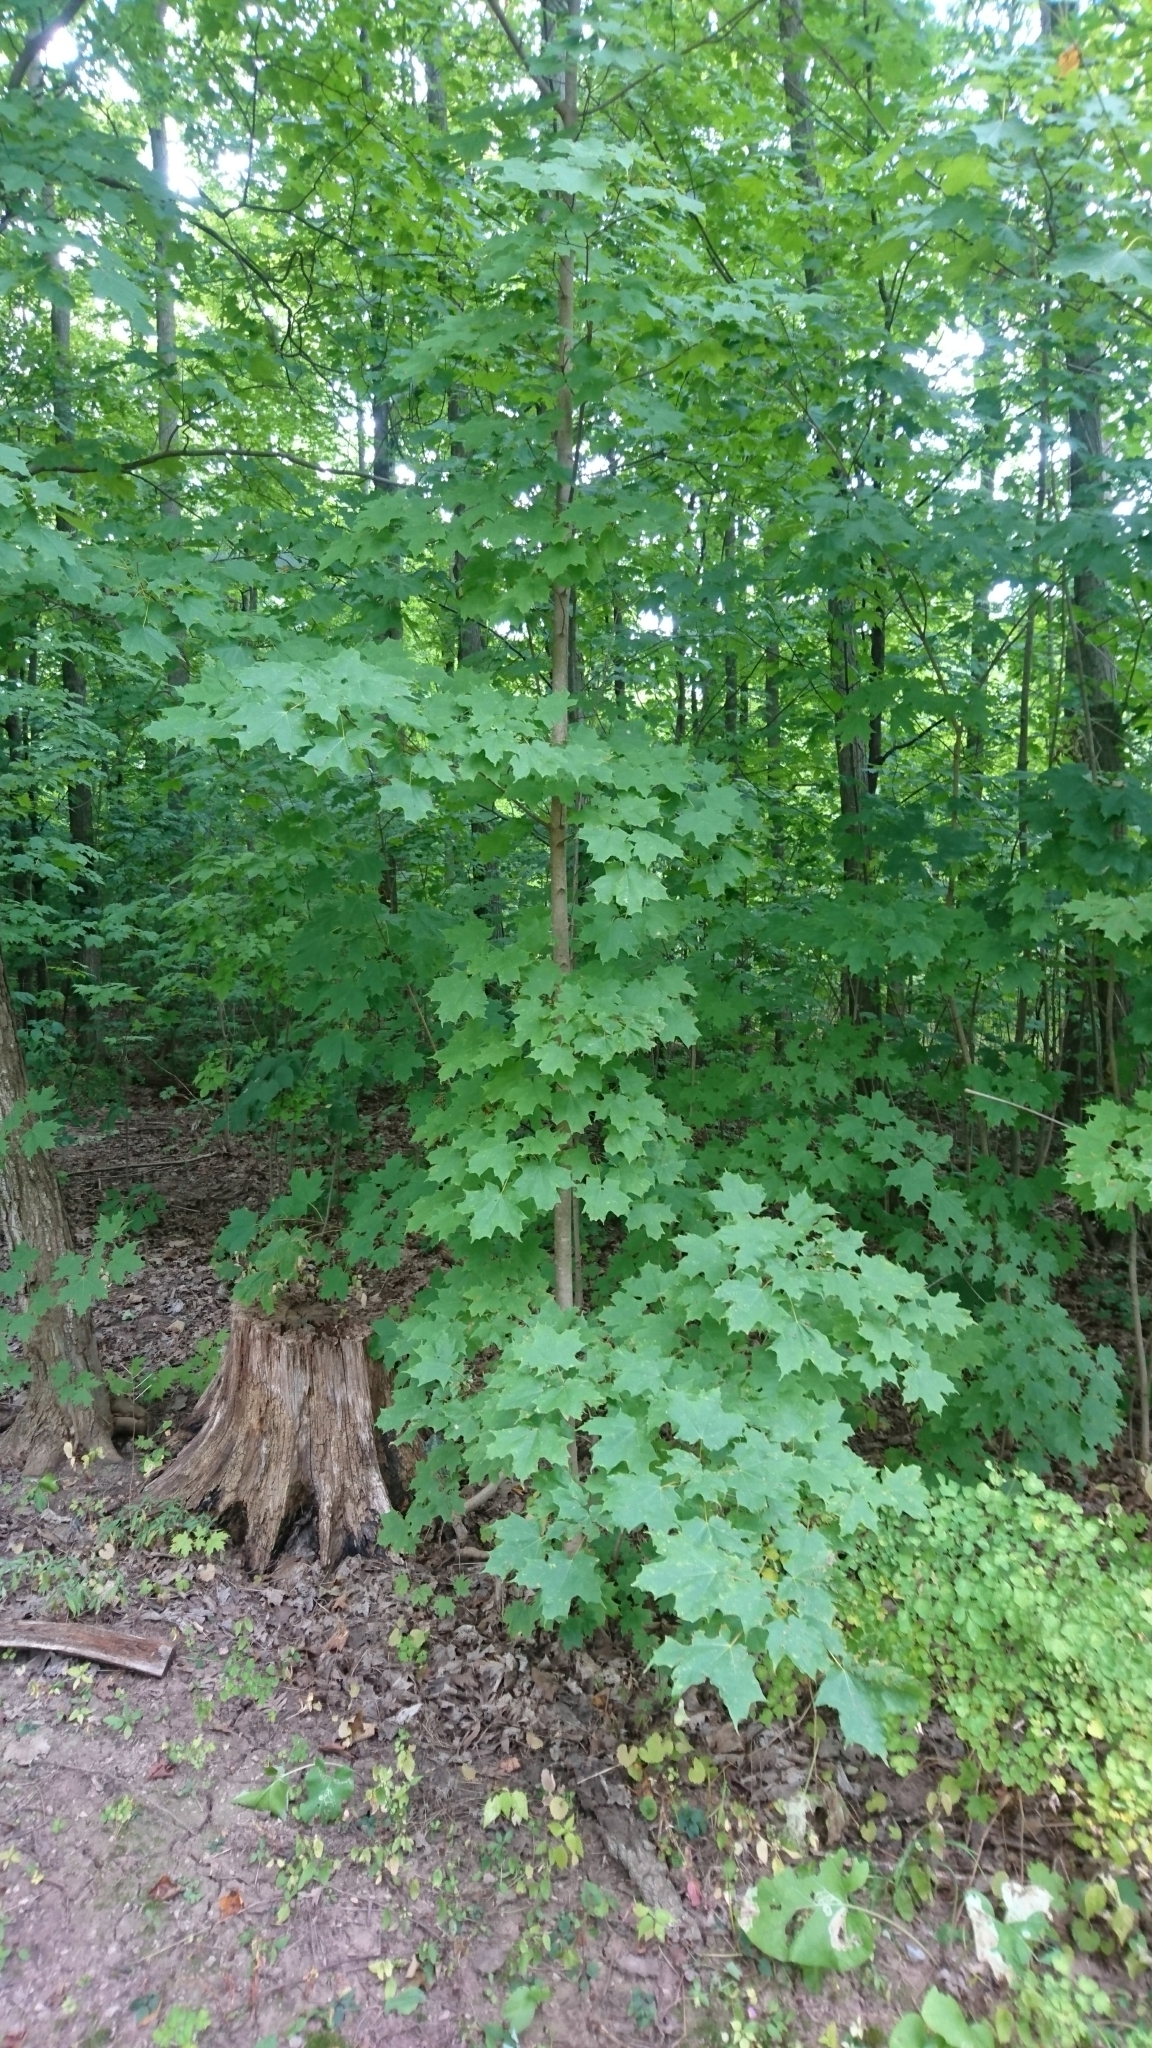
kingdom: Plantae
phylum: Tracheophyta
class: Magnoliopsida
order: Sapindales
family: Sapindaceae
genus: Acer
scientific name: Acer saccharum
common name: Sugar maple
